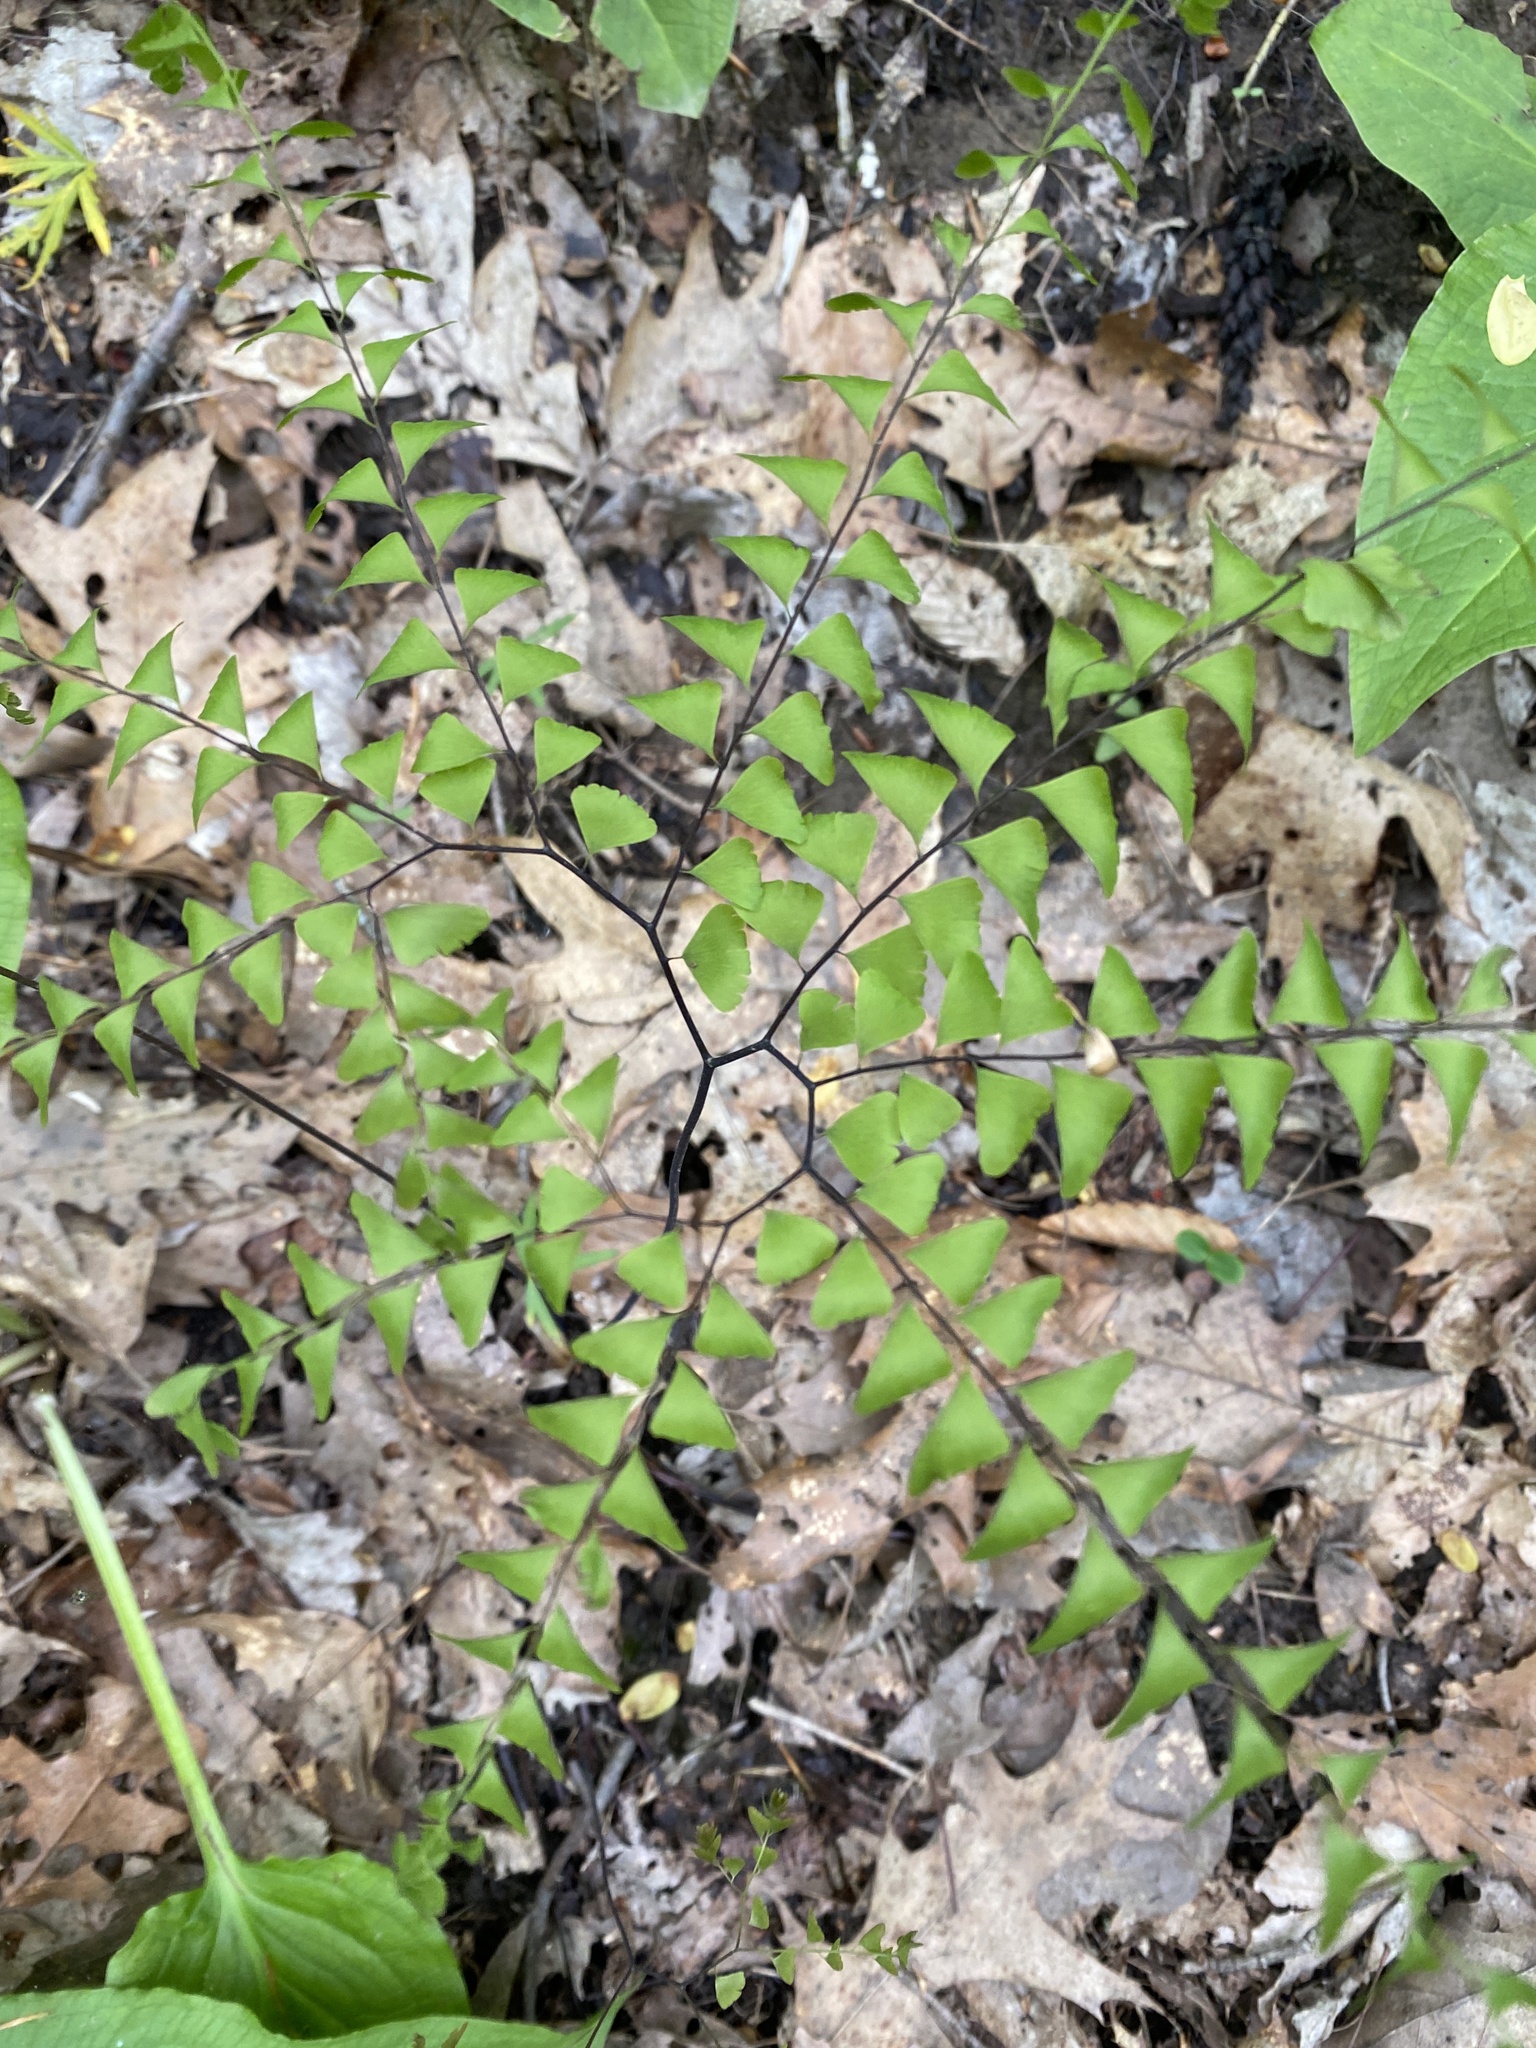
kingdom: Plantae
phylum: Tracheophyta
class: Polypodiopsida
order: Polypodiales
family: Pteridaceae
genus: Adiantum
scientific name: Adiantum pedatum
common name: Five-finger fern
